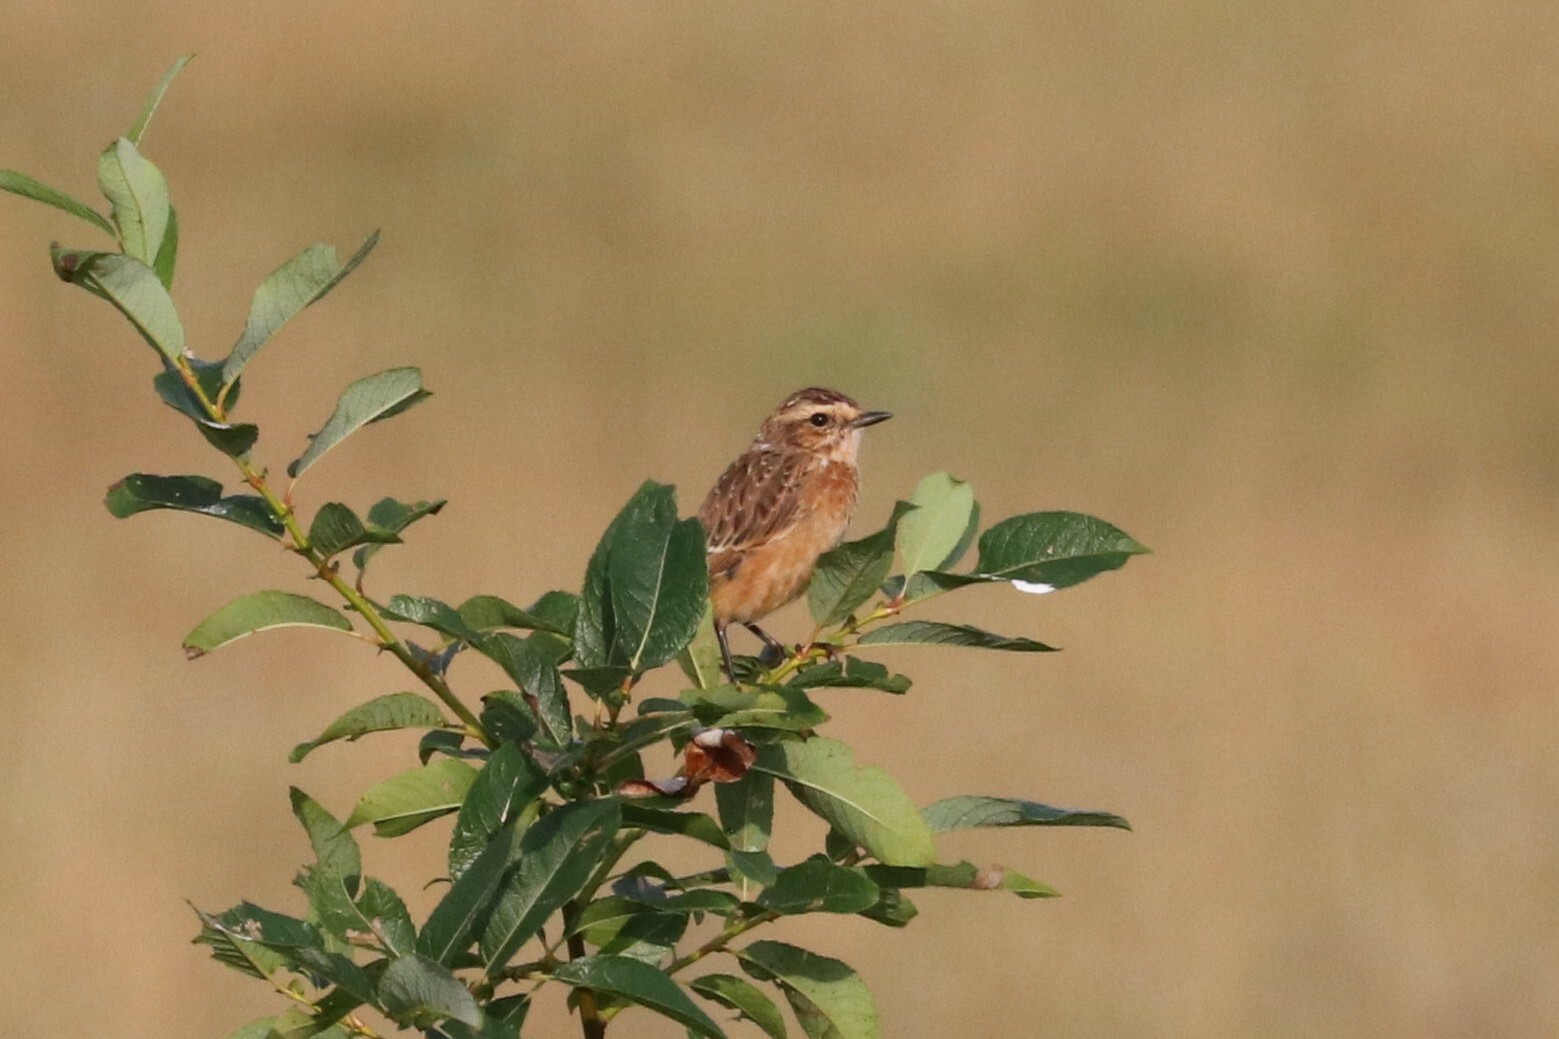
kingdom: Animalia
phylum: Chordata
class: Aves
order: Passeriformes
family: Muscicapidae
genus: Saxicola
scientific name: Saxicola rubetra
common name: Whinchat
